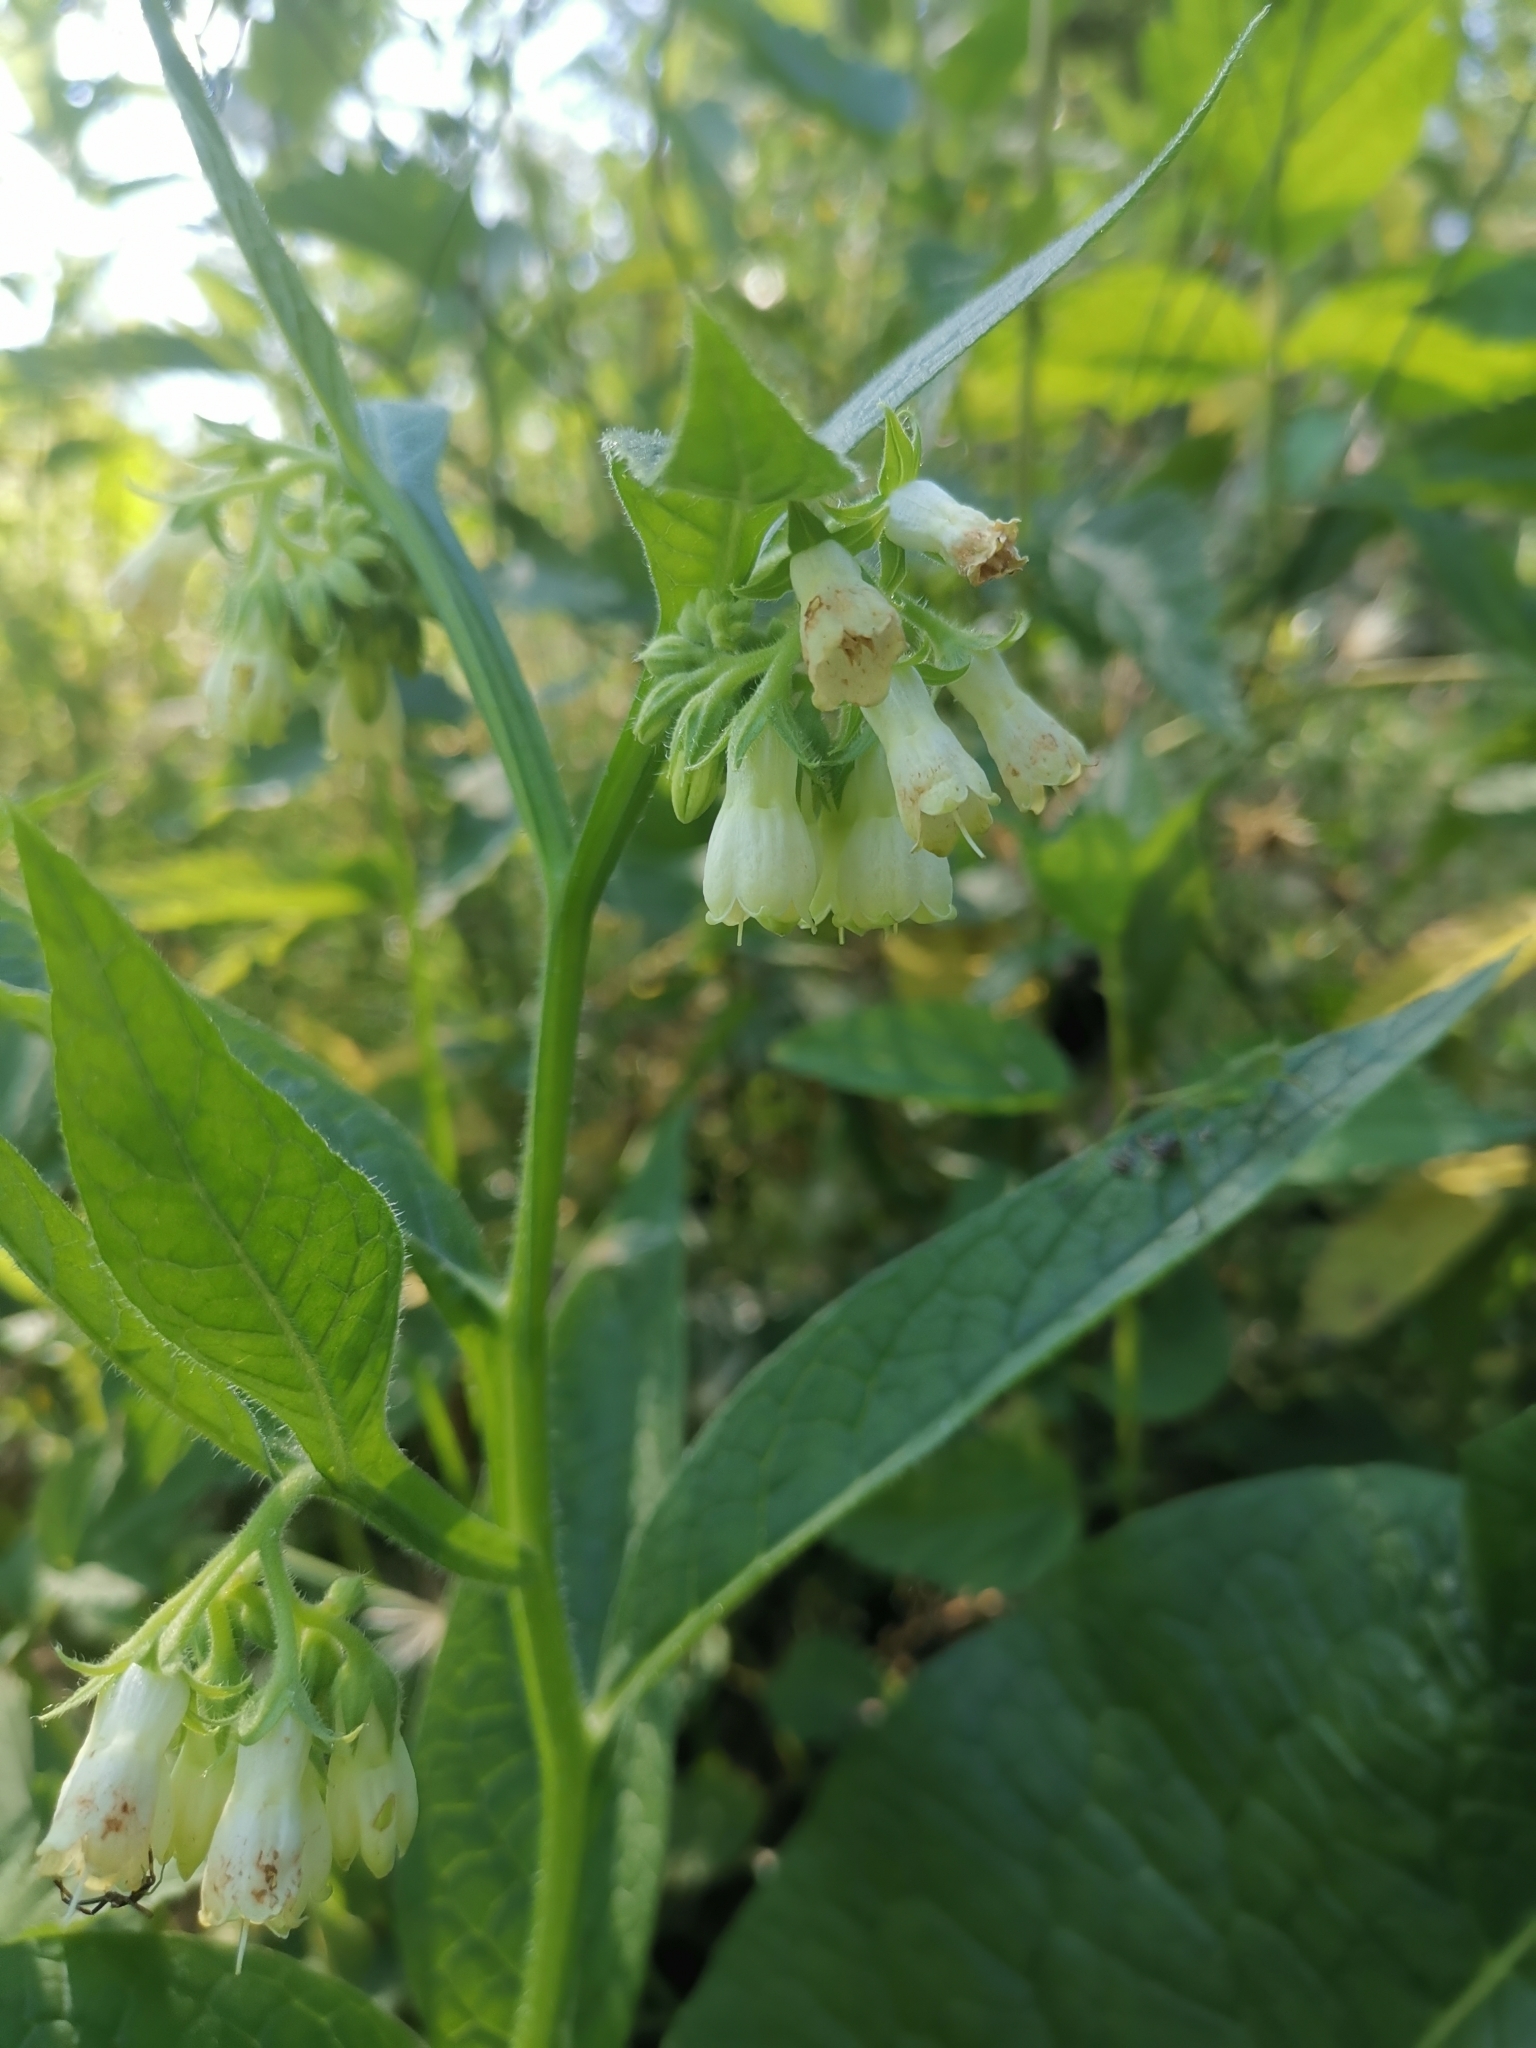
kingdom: Plantae
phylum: Tracheophyta
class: Magnoliopsida
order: Boraginales
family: Boraginaceae
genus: Symphytum
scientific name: Symphytum tuberosum
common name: Tuberous comfrey
